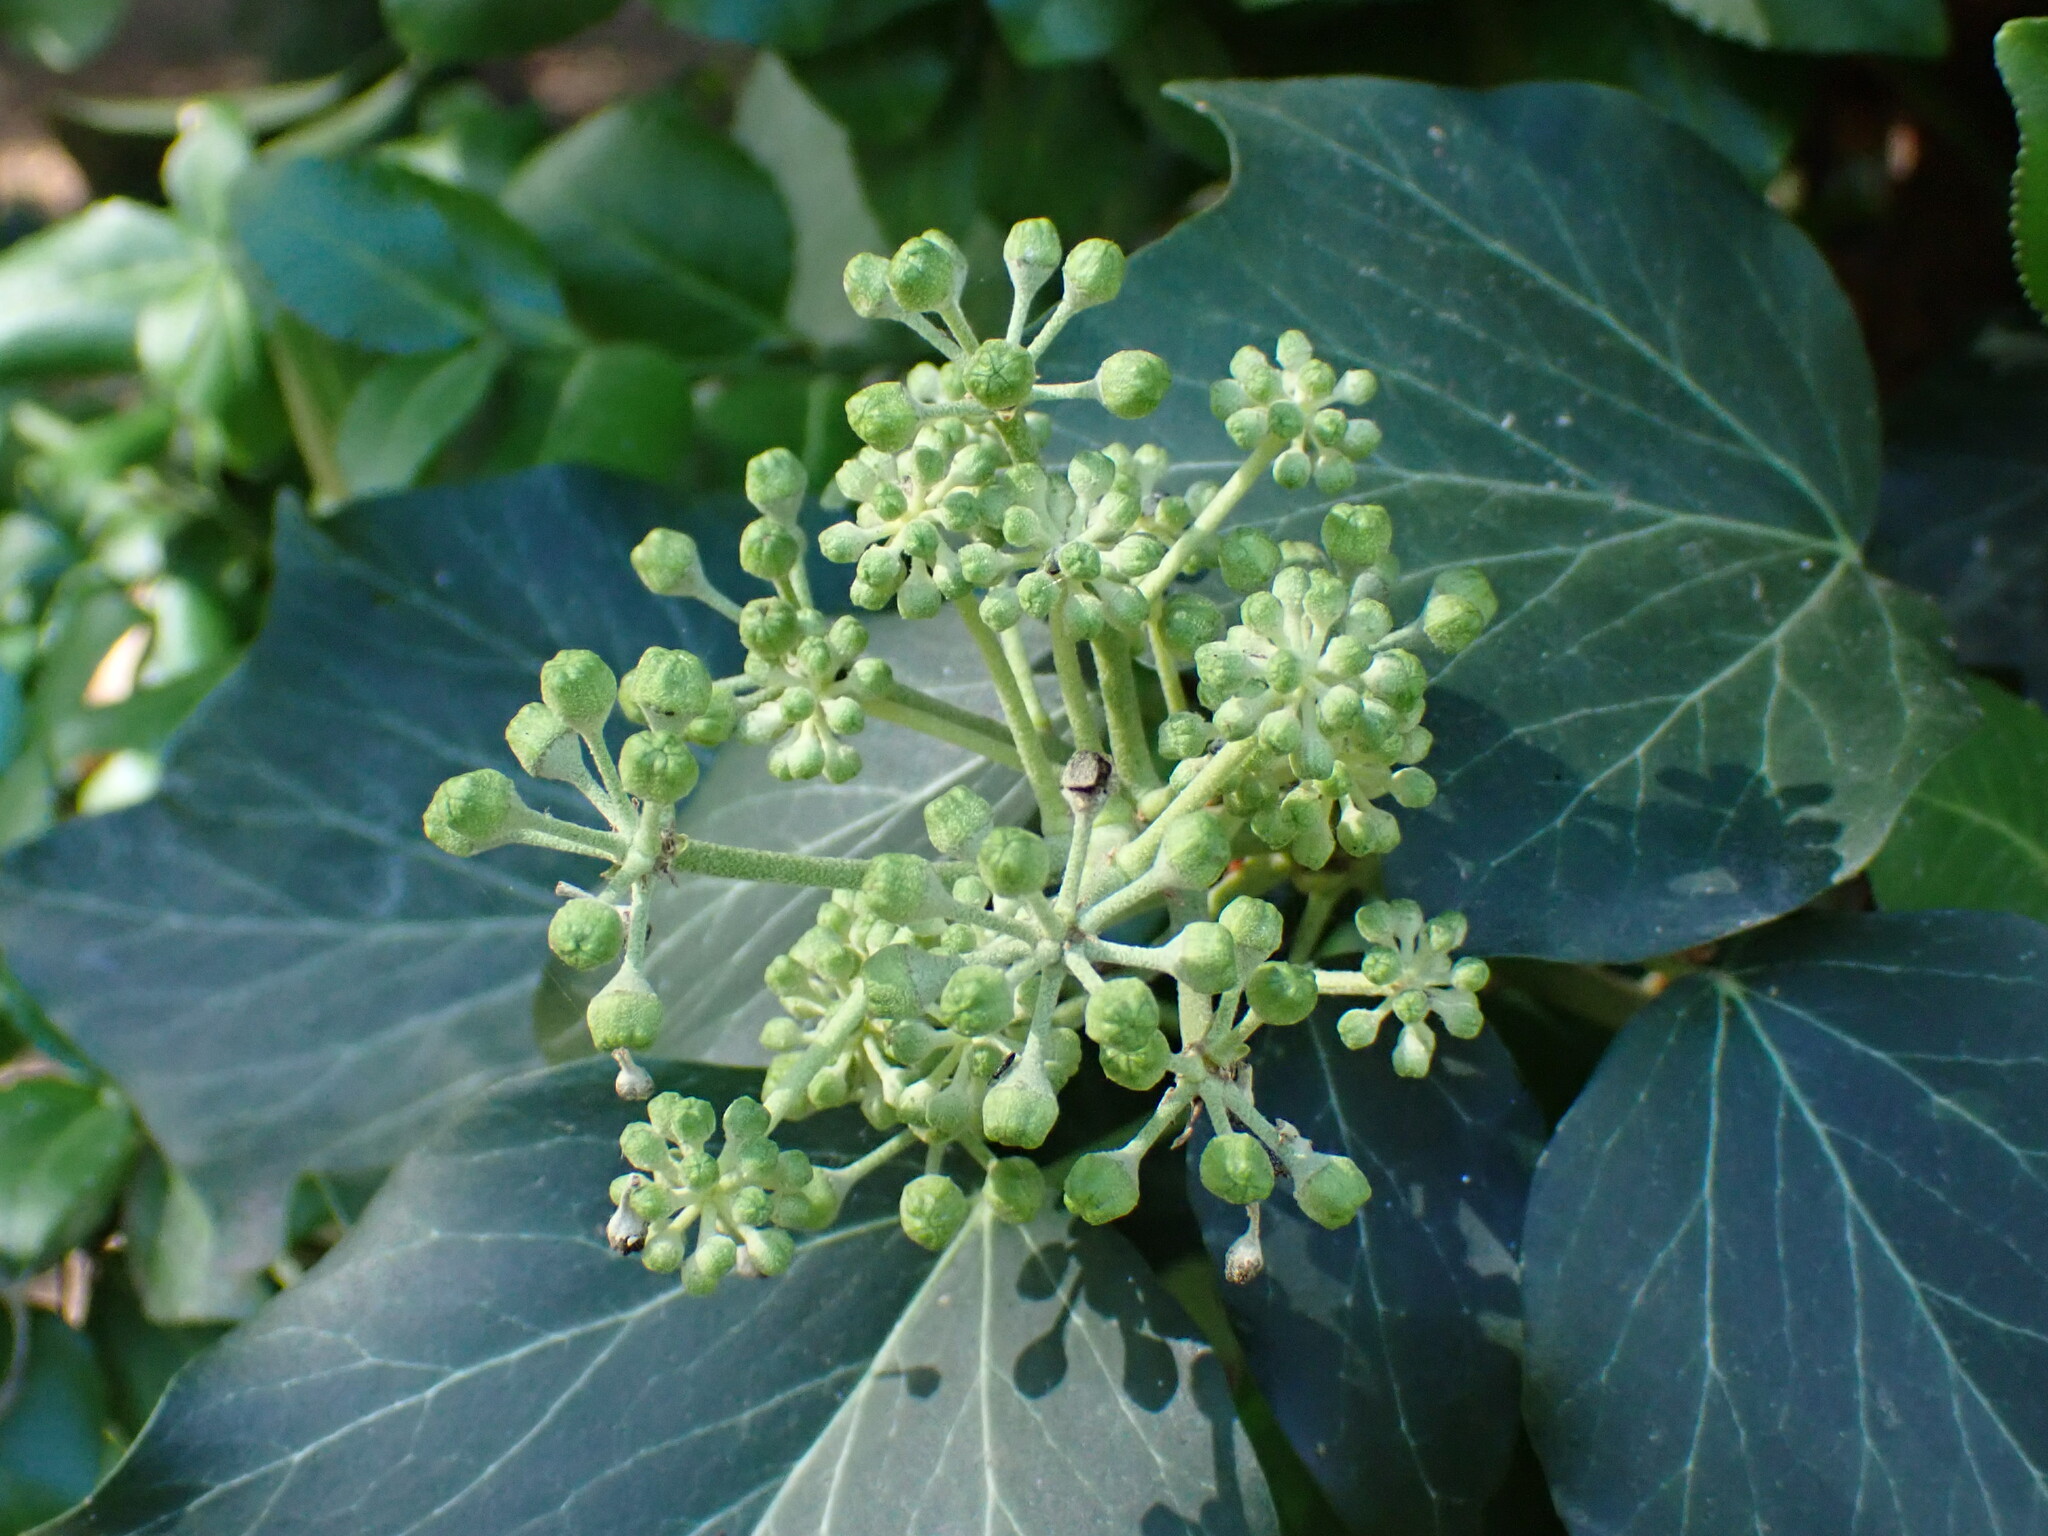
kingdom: Plantae
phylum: Tracheophyta
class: Magnoliopsida
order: Apiales
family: Araliaceae
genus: Hedera
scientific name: Hedera helix
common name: Ivy
